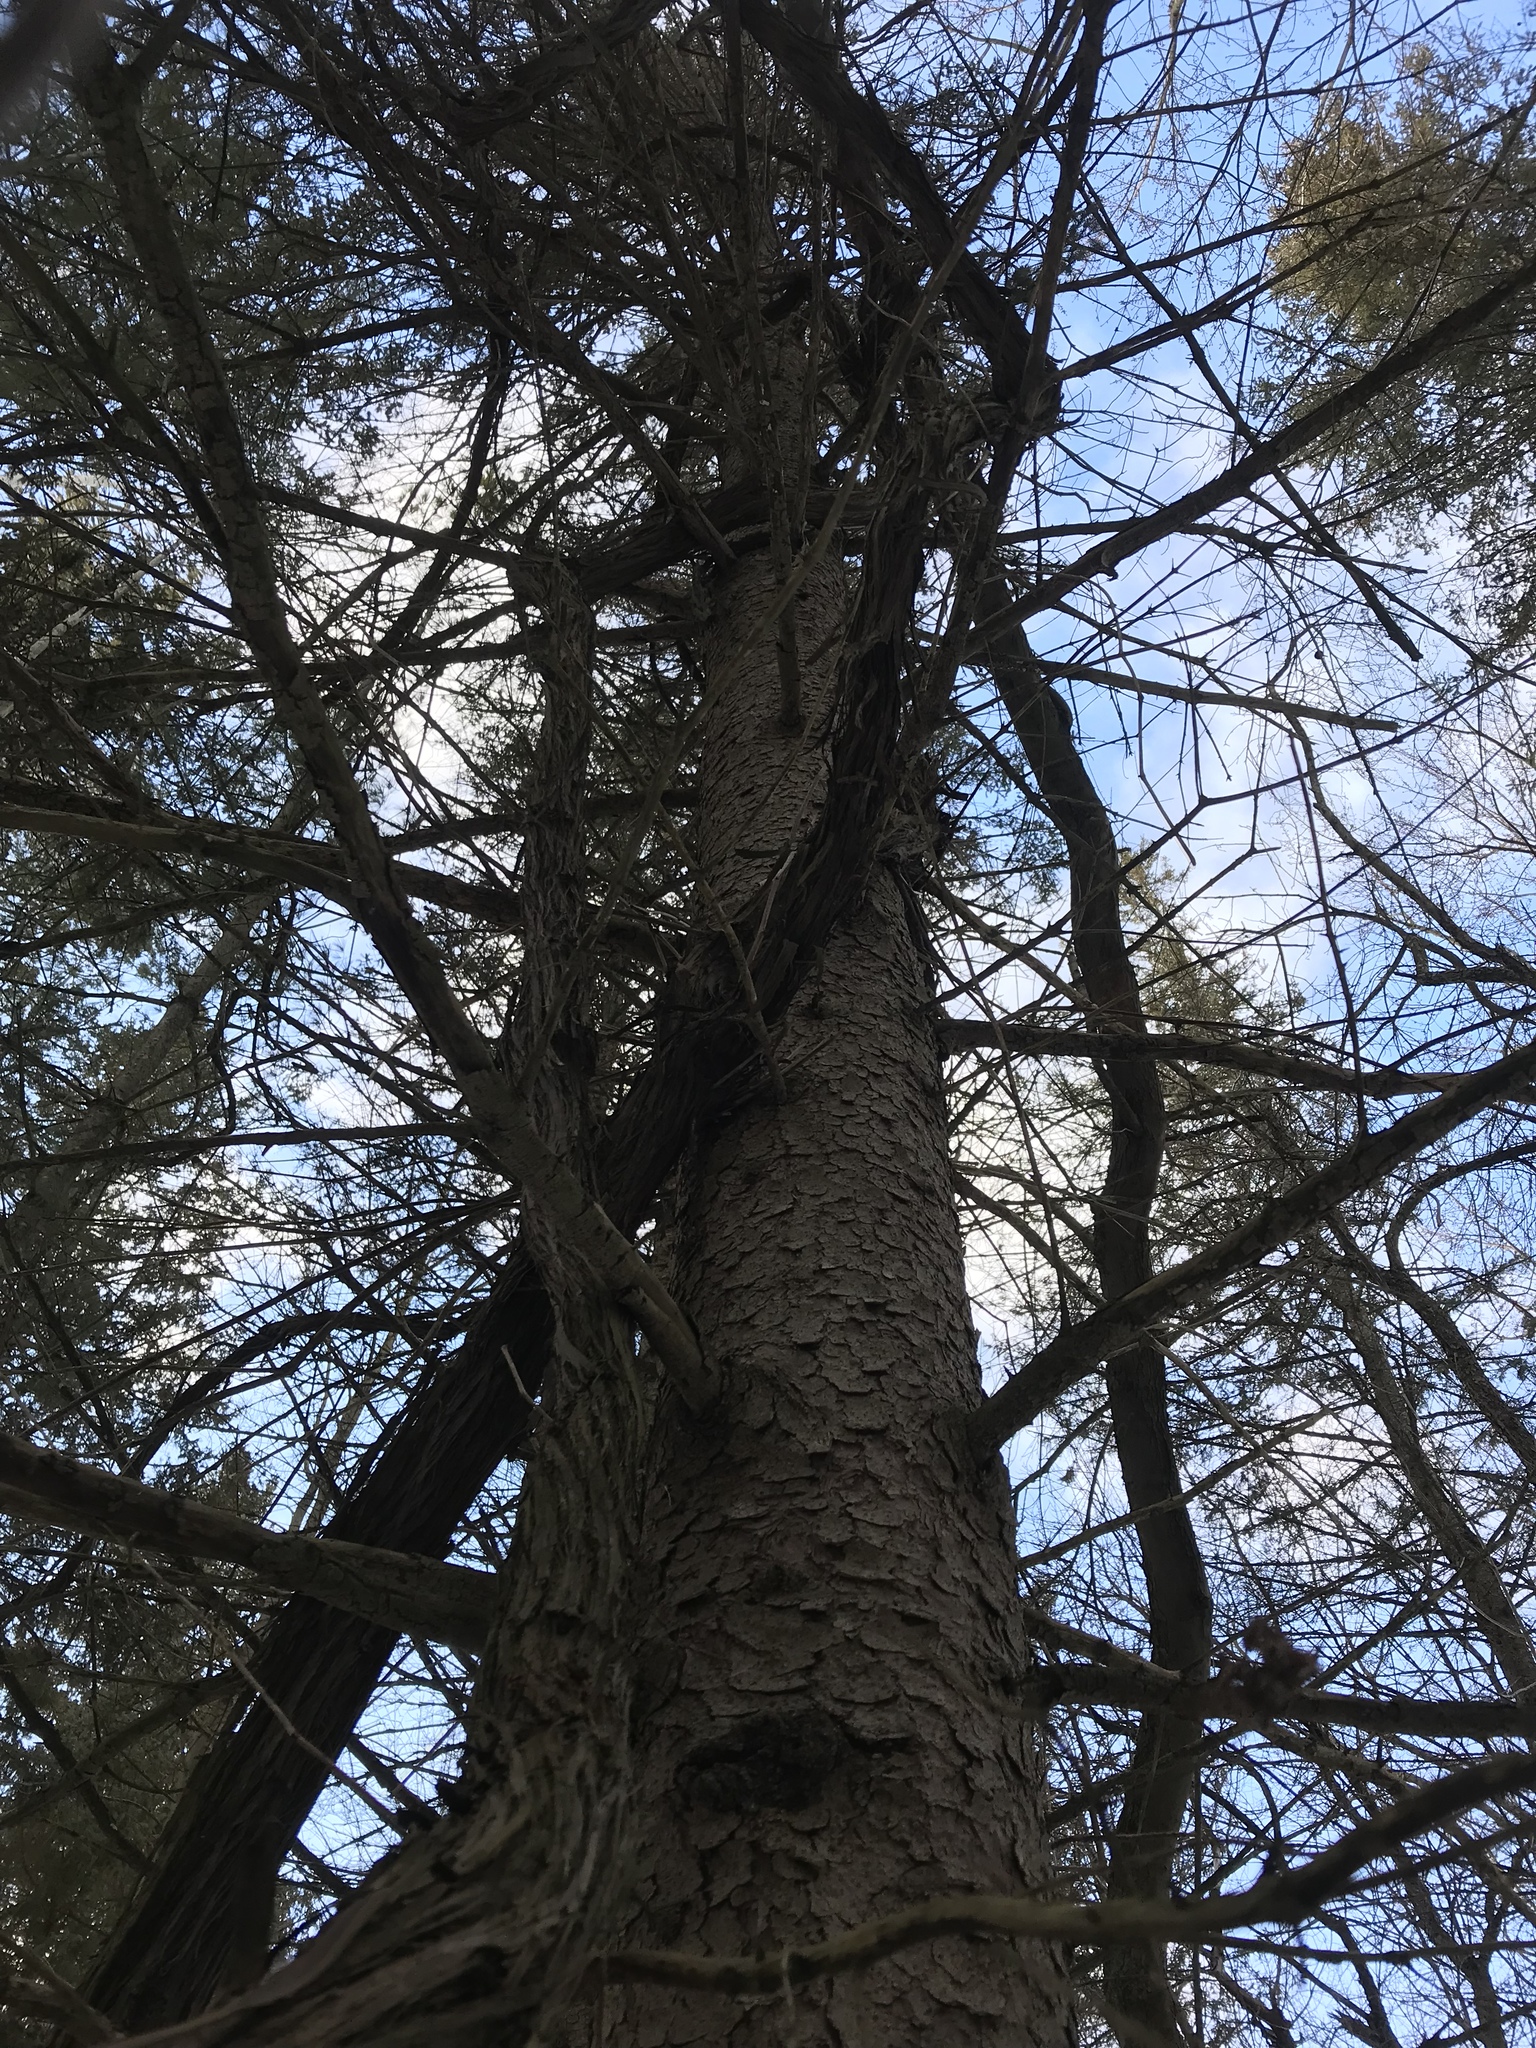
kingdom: Plantae
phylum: Tracheophyta
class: Magnoliopsida
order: Vitales
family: Vitaceae
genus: Vitis
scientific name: Vitis riparia
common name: Frost grape
